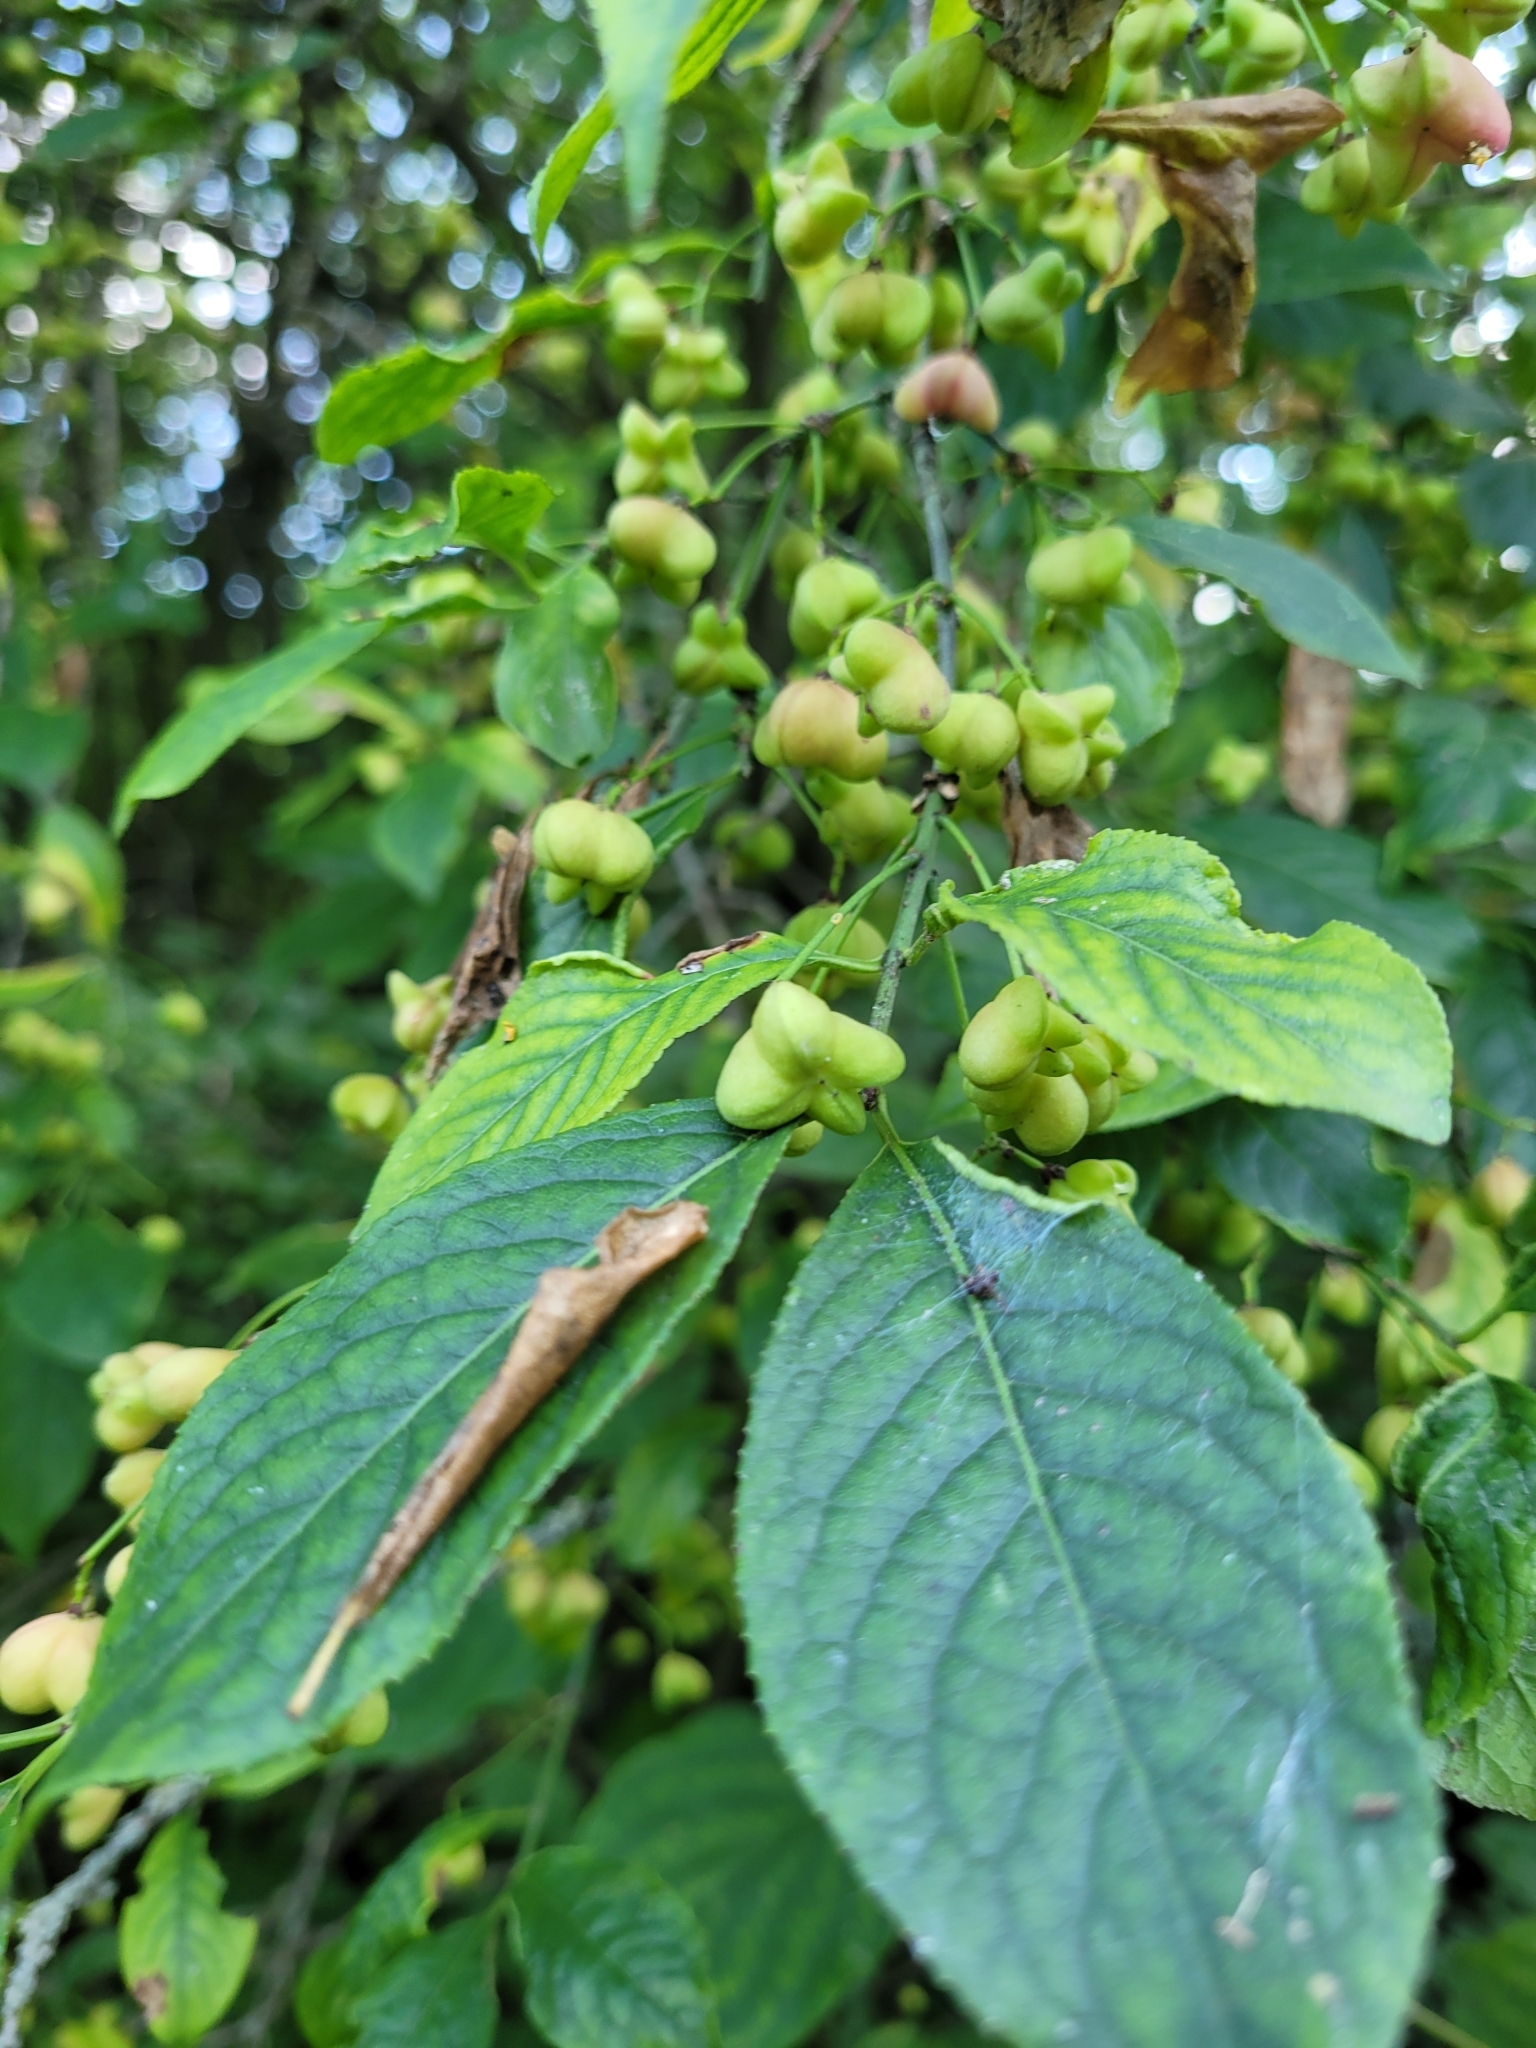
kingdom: Plantae
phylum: Tracheophyta
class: Magnoliopsida
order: Celastrales
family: Celastraceae
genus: Euonymus
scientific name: Euonymus europaeus
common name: Spindle
